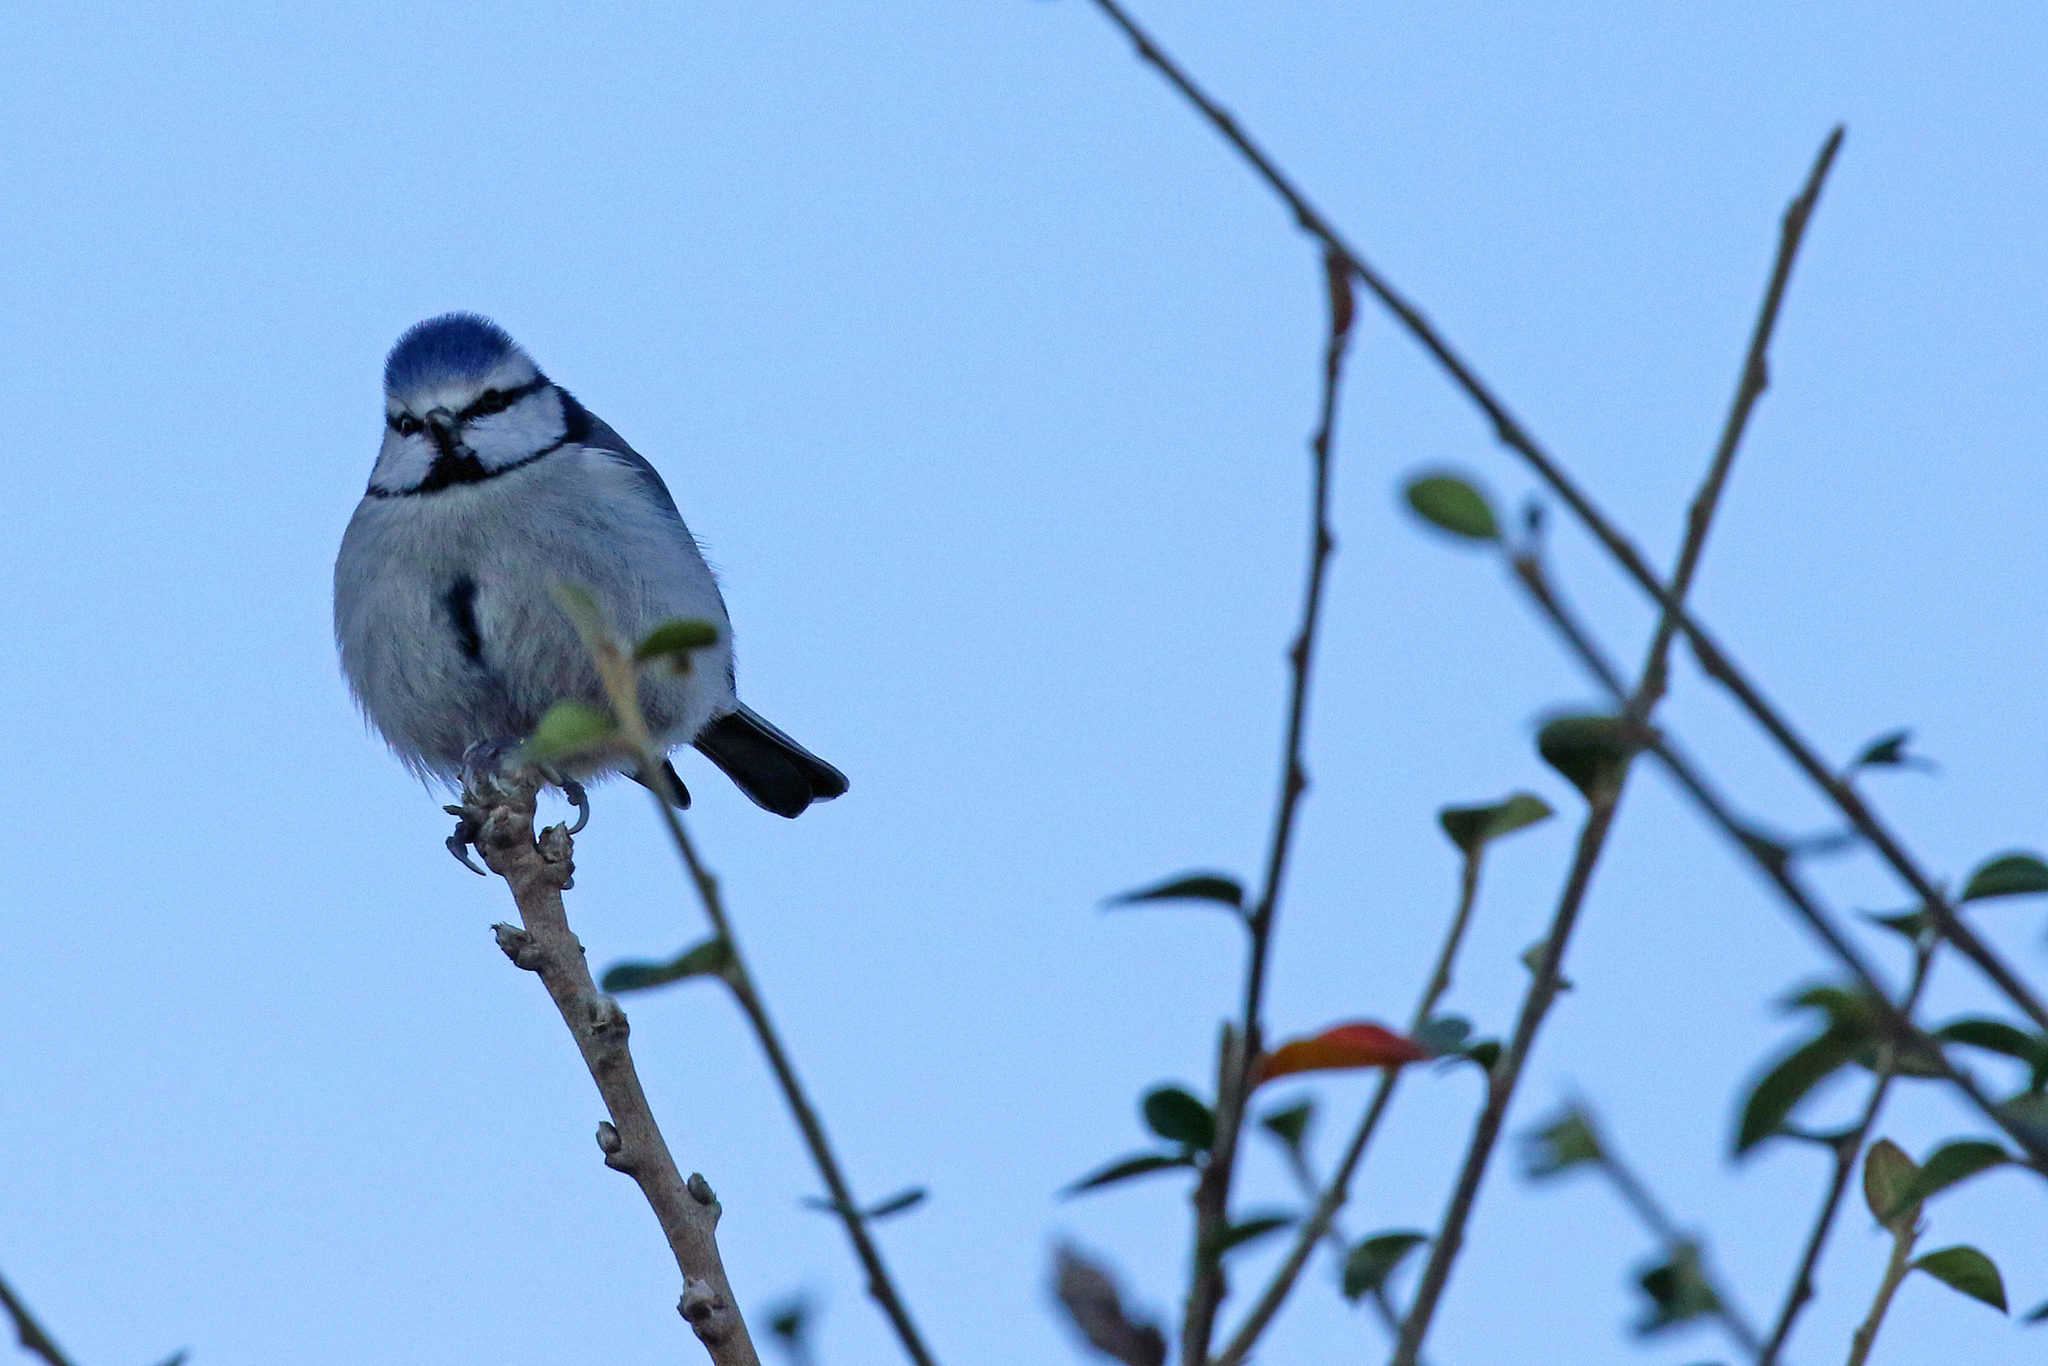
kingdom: Animalia
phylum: Chordata
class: Aves
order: Passeriformes
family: Paridae
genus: Cyanistes
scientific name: Cyanistes caeruleus
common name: Eurasian blue tit
